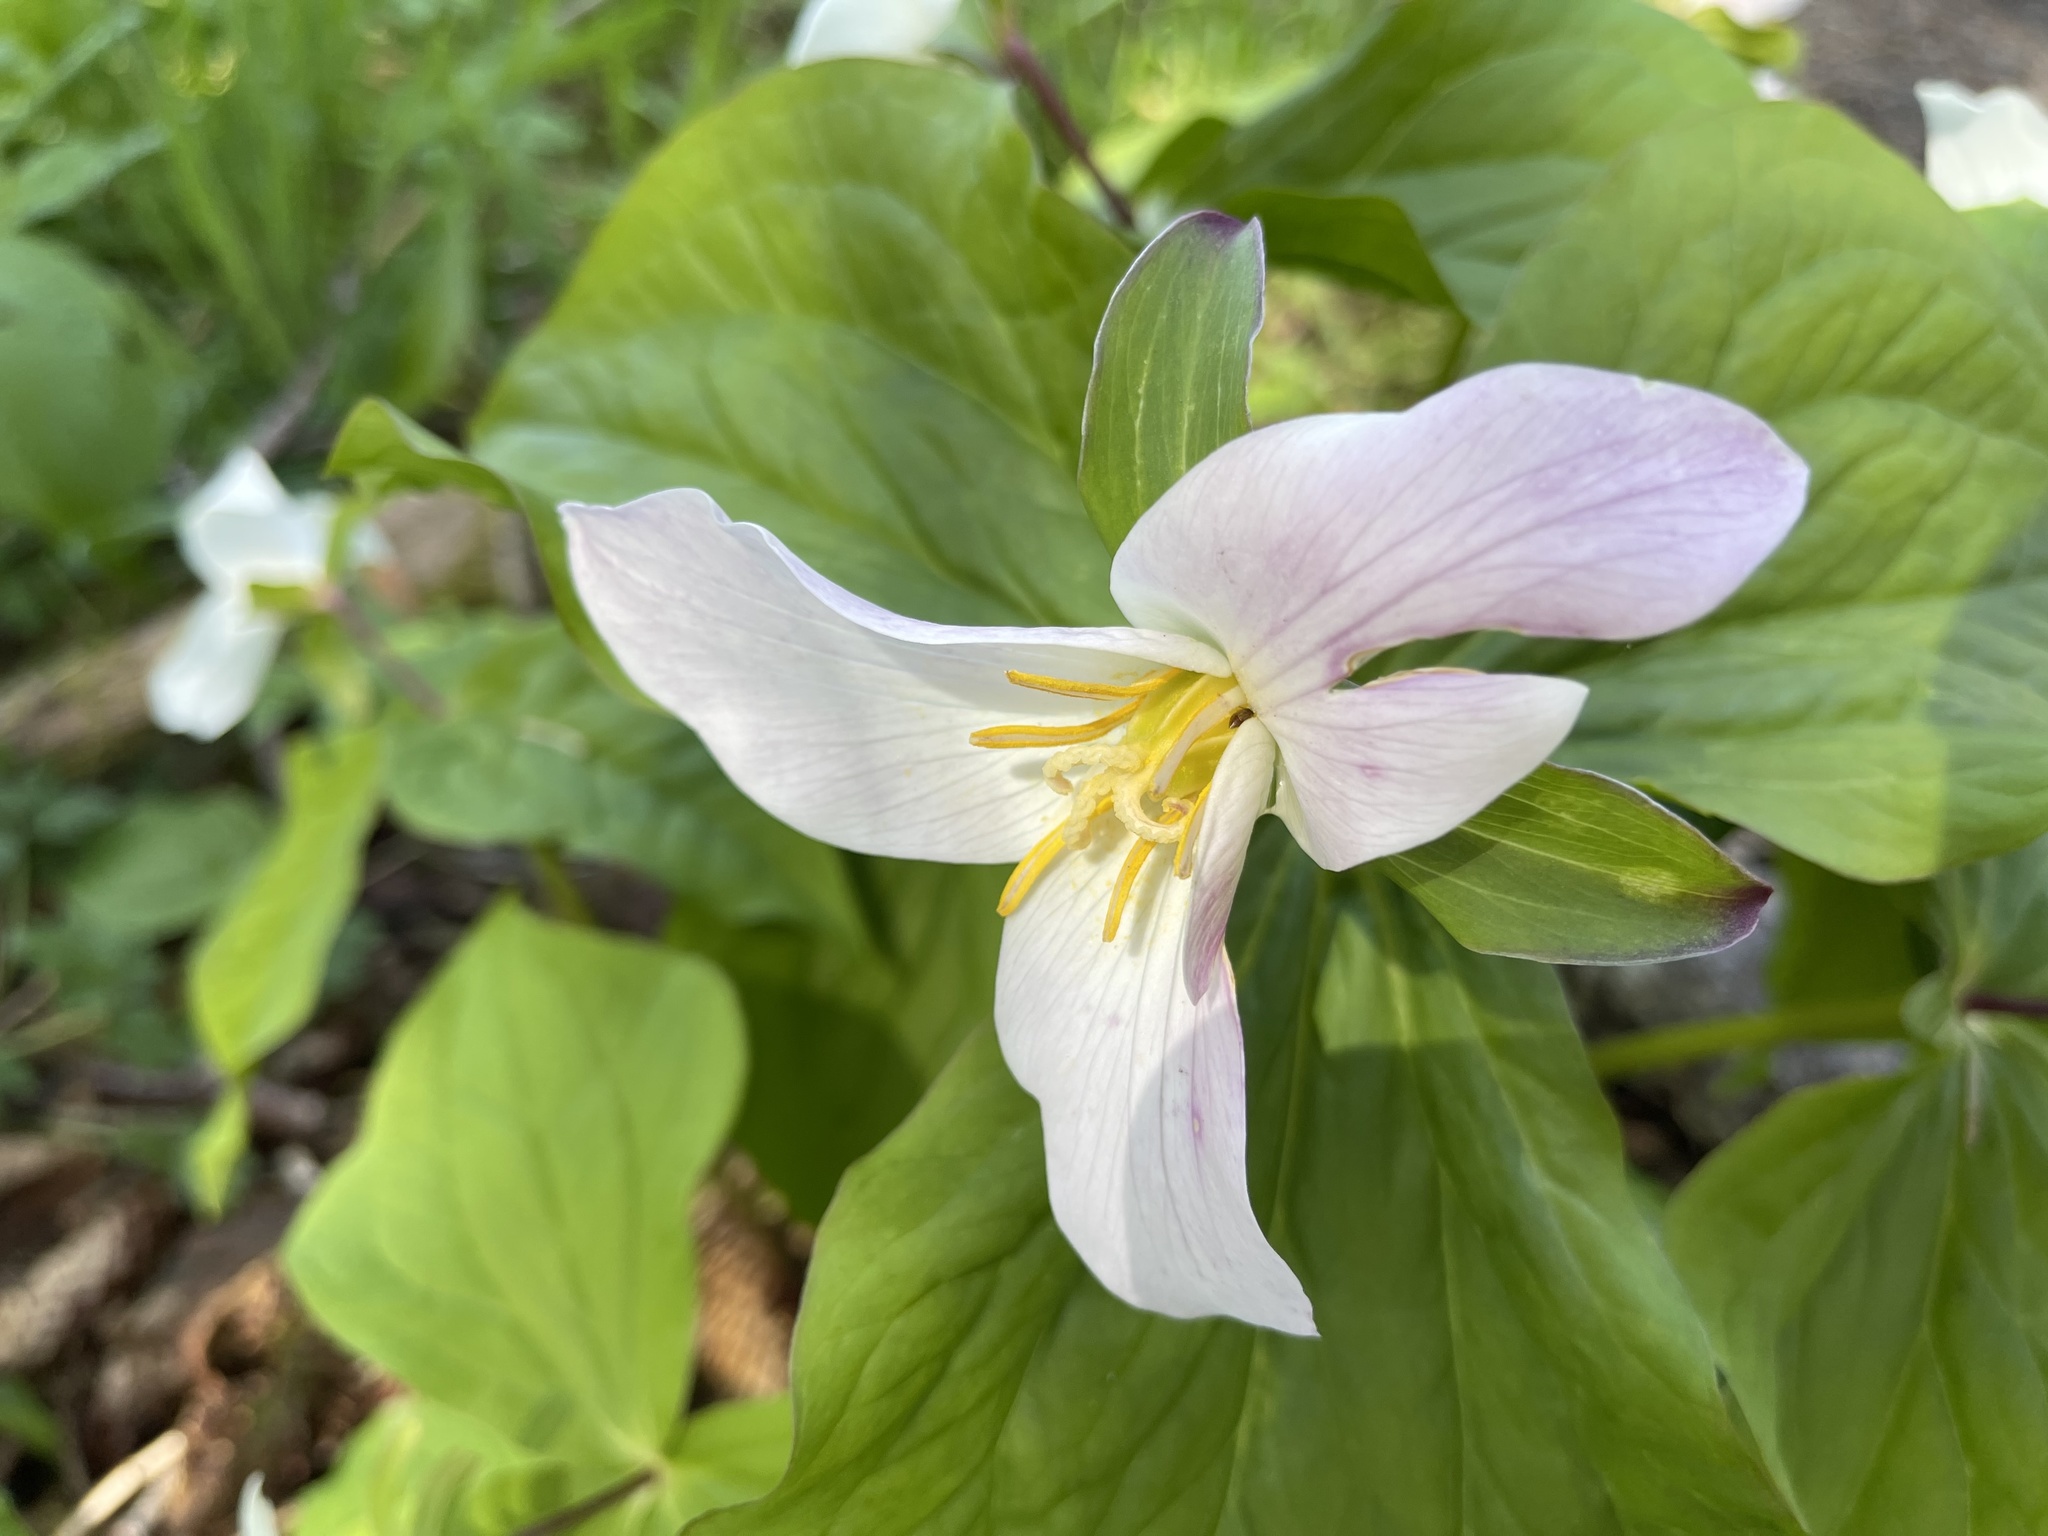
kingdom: Plantae
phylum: Tracheophyta
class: Liliopsida
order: Liliales
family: Melanthiaceae
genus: Trillium
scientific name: Trillium ovatum
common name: Pacific trillium
